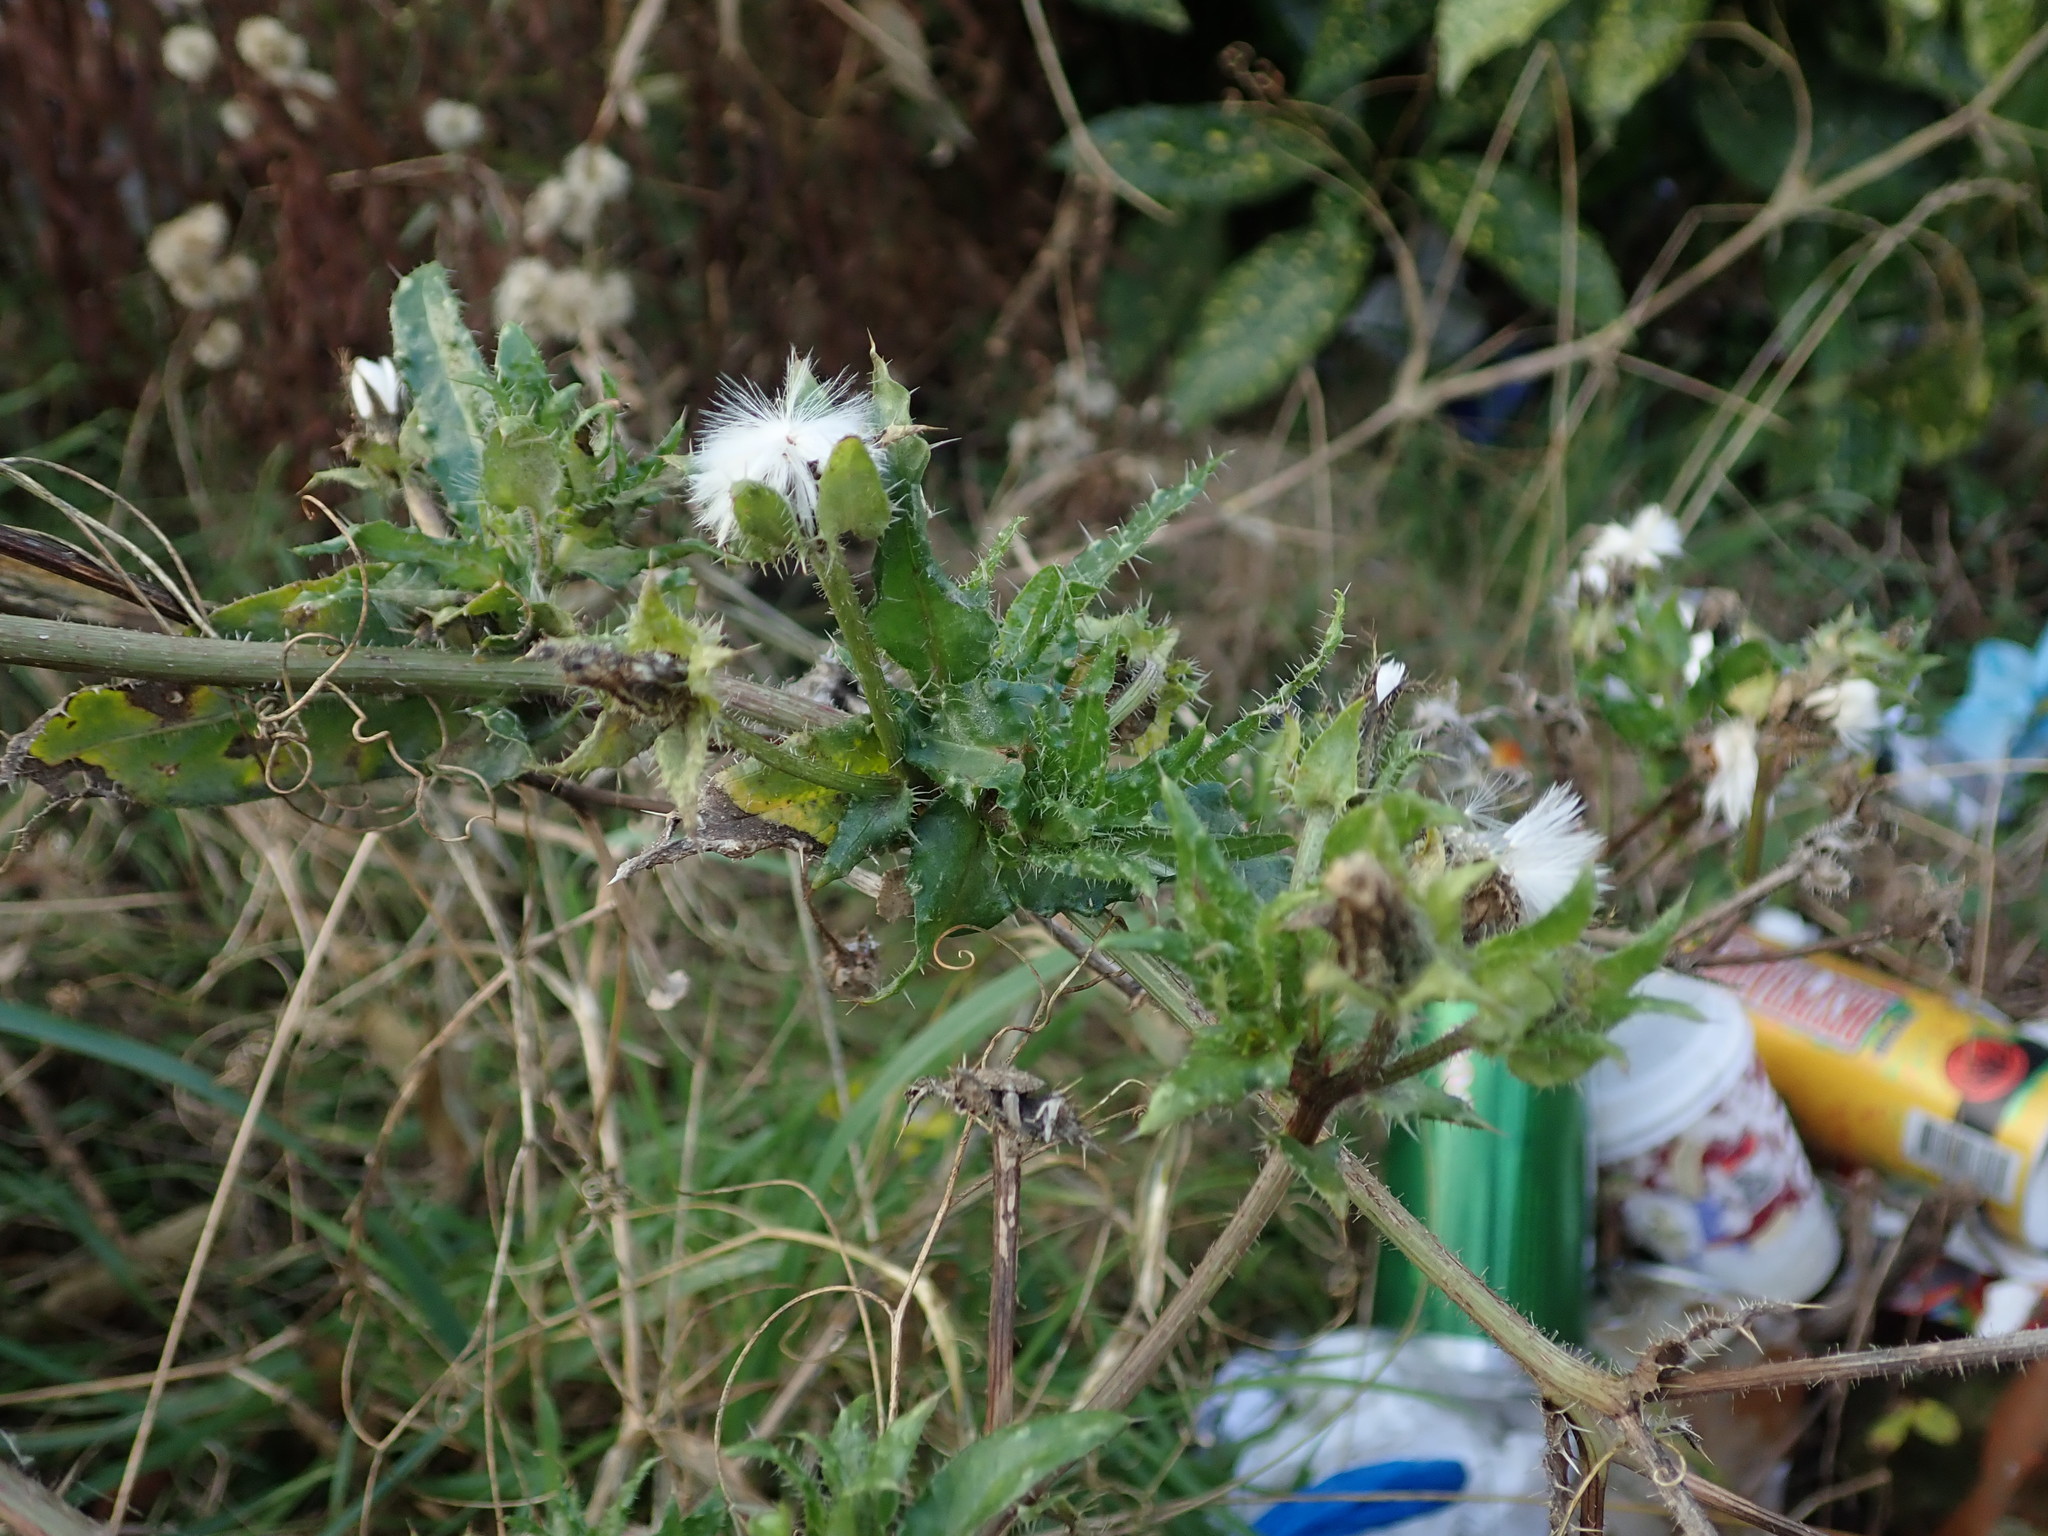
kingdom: Plantae
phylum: Tracheophyta
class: Magnoliopsida
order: Asterales
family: Asteraceae
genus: Helminthotheca
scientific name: Helminthotheca echioides
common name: Ox-tongue
